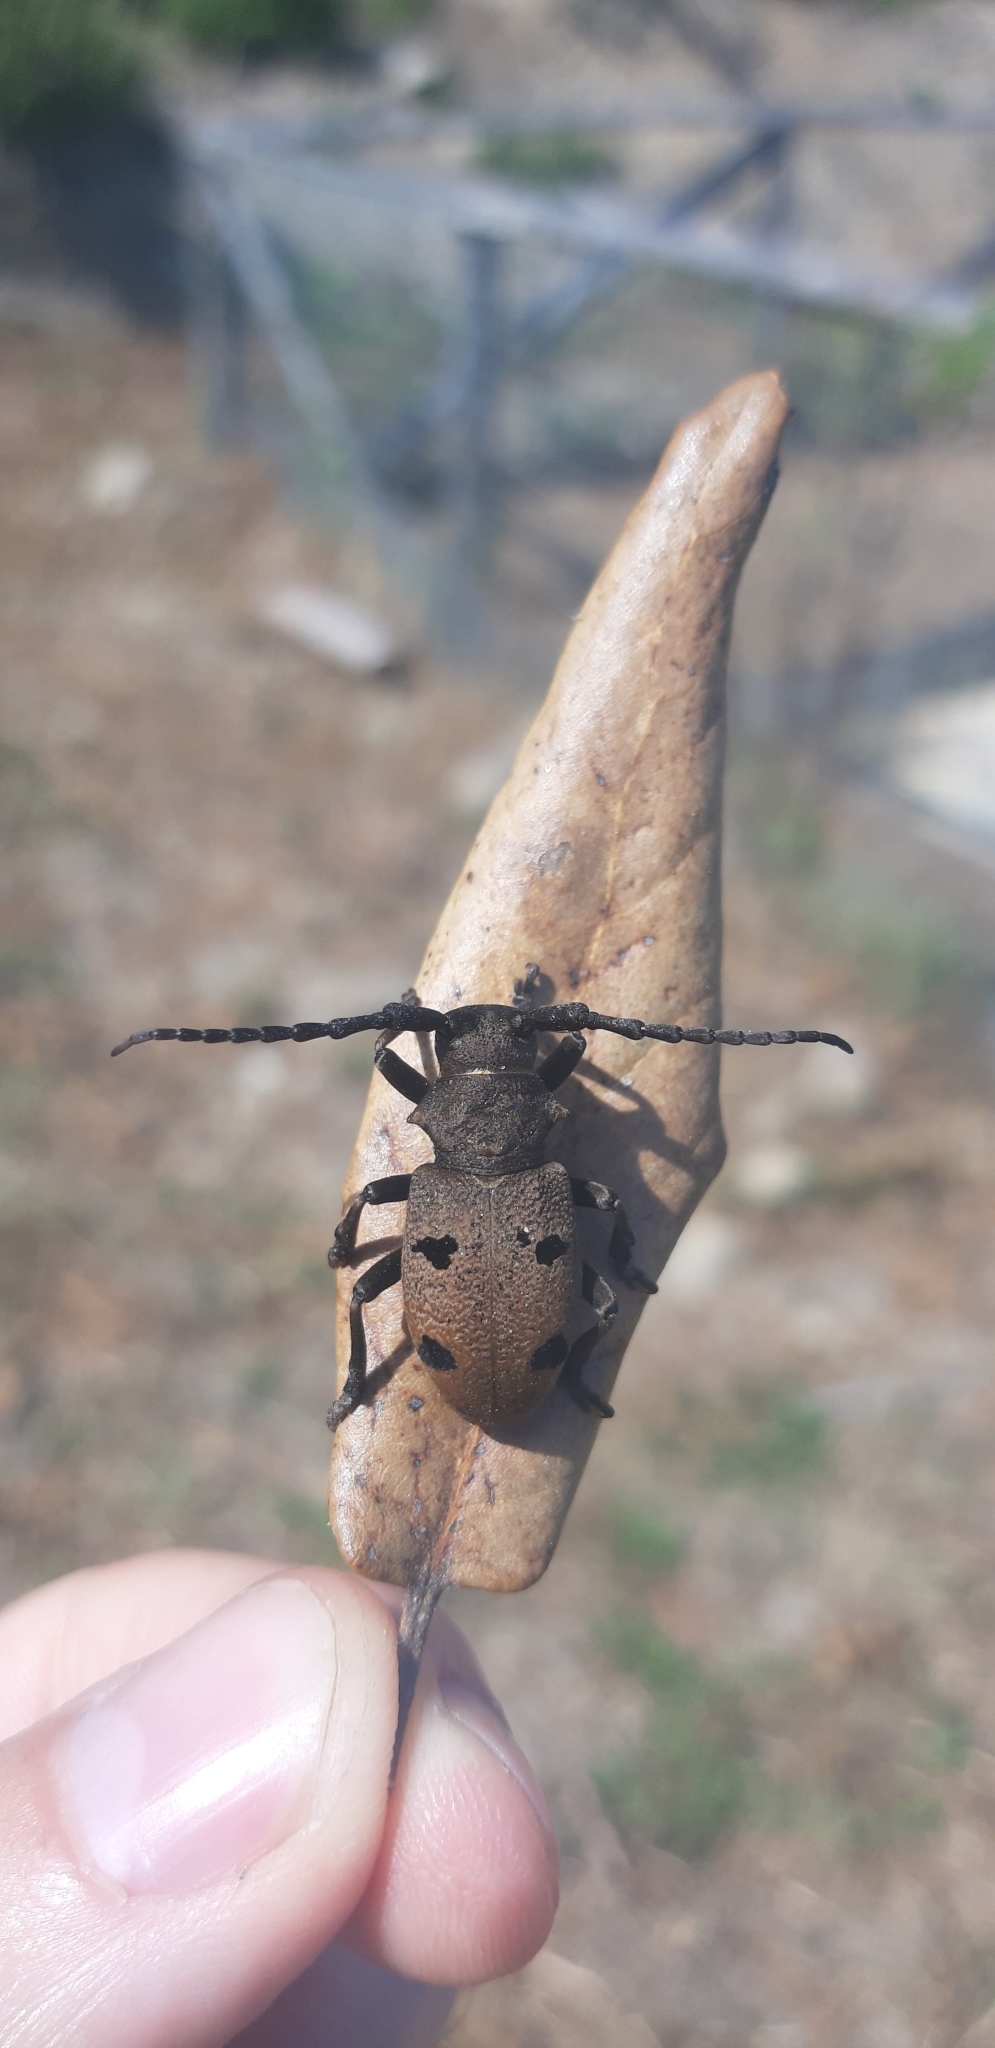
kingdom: Animalia
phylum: Arthropoda
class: Insecta
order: Coleoptera
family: Cerambycidae
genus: Herophila
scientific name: Herophila tristis
